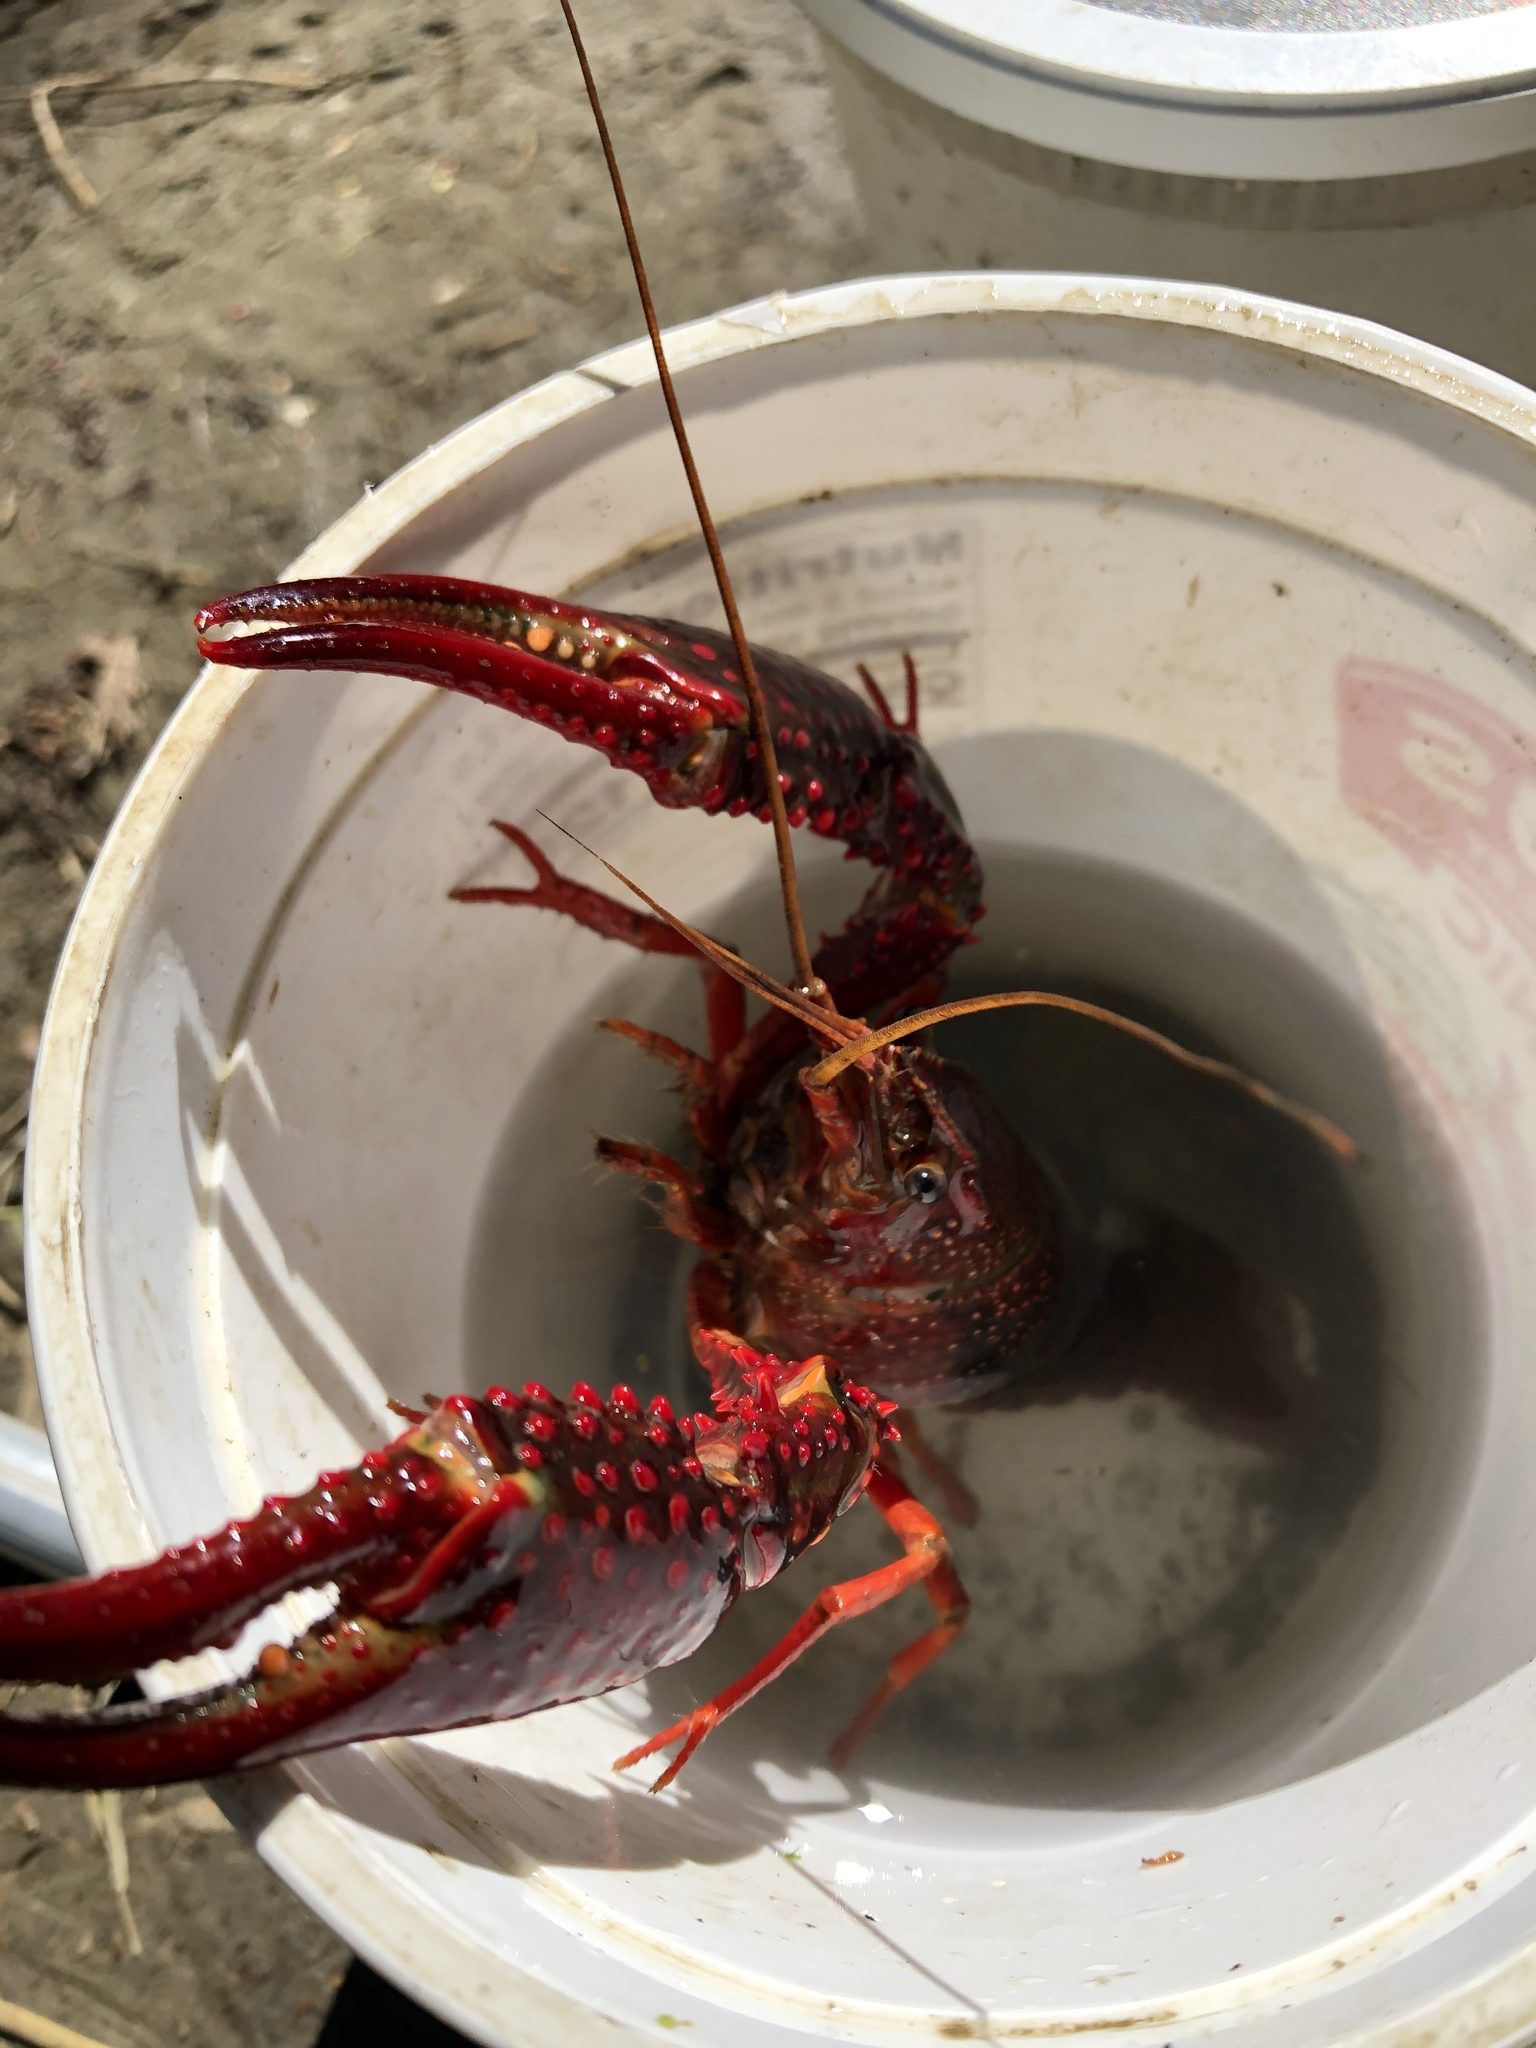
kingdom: Animalia
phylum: Arthropoda
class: Malacostraca
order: Decapoda
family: Cambaridae
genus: Procambarus
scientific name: Procambarus clarkii
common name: Red swamp crayfish
